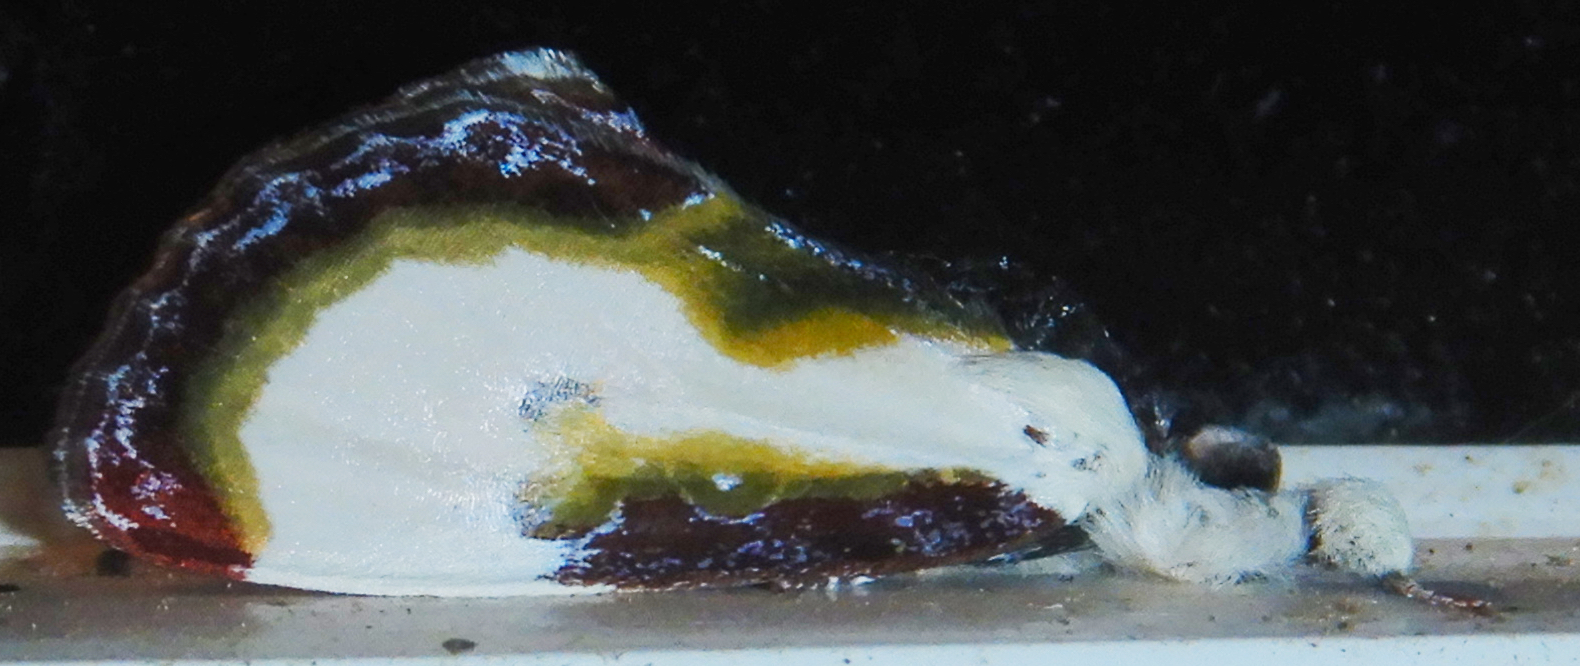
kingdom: Animalia
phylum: Arthropoda
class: Insecta
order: Lepidoptera
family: Noctuidae
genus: Eudryas
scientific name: Eudryas grata
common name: Beautiful wood-nymph
